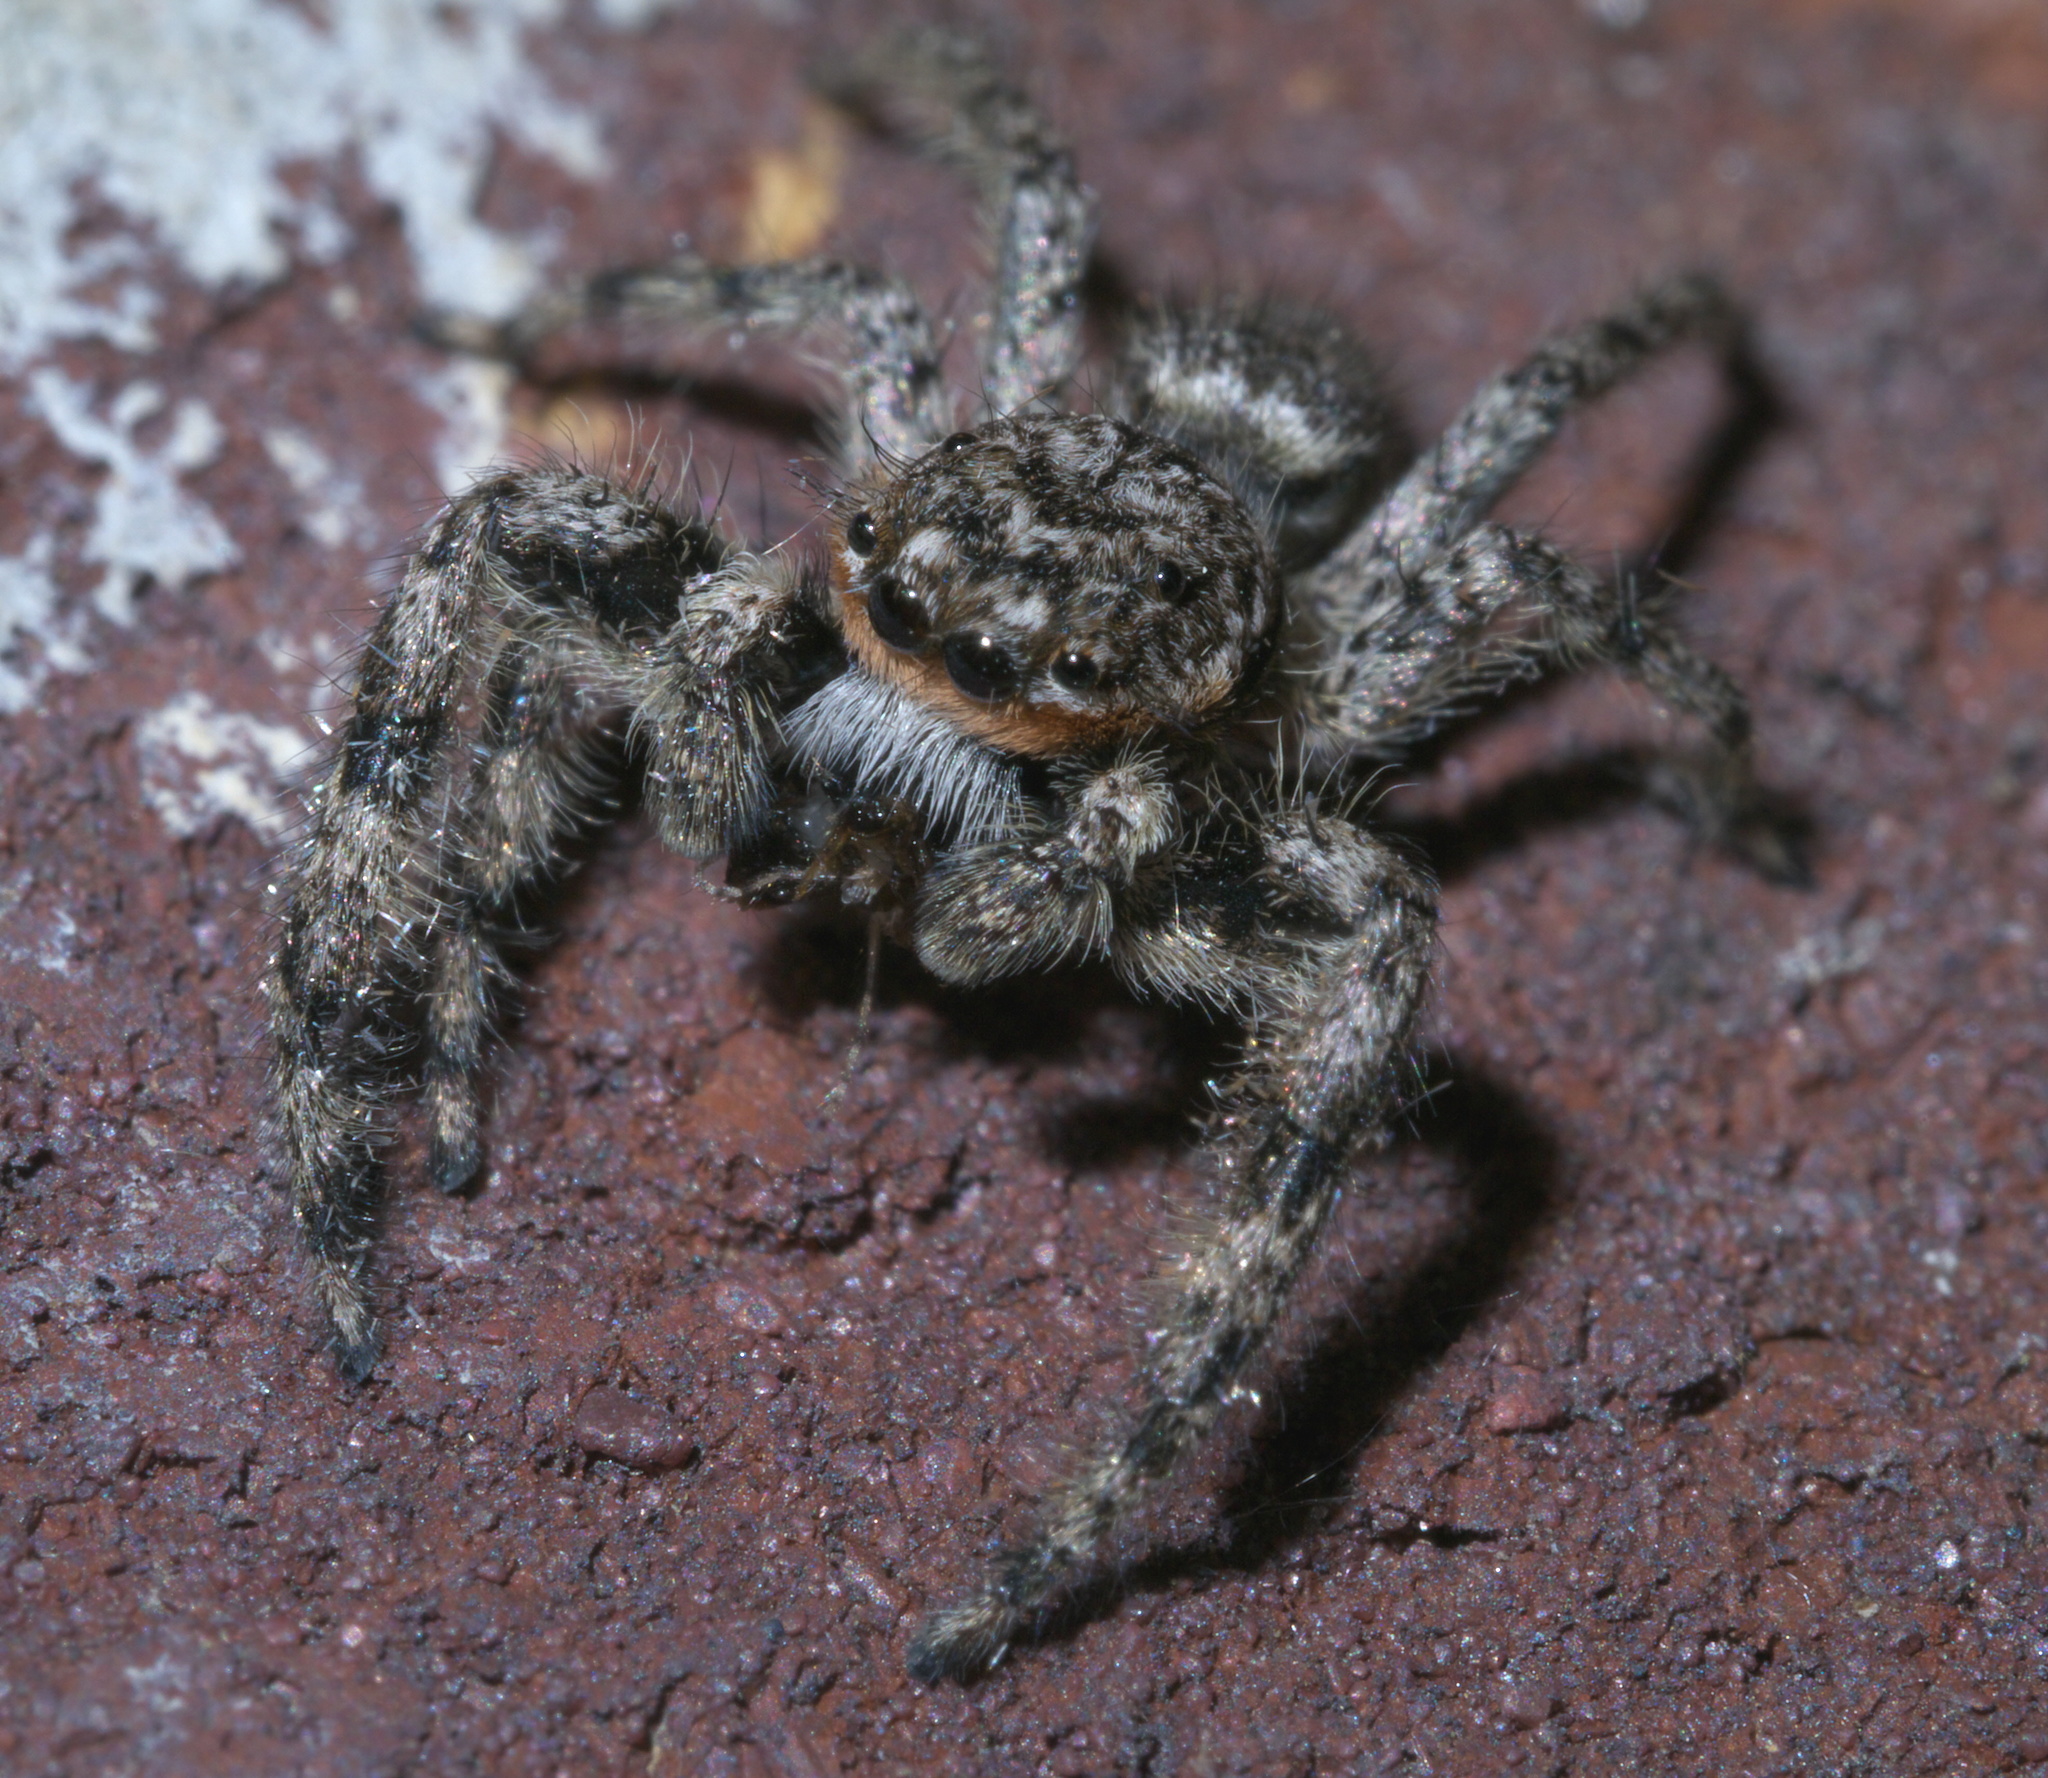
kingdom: Animalia
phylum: Arthropoda
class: Arachnida
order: Araneae
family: Salticidae
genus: Platycryptus
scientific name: Platycryptus undatus
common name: Tan jumping spider
